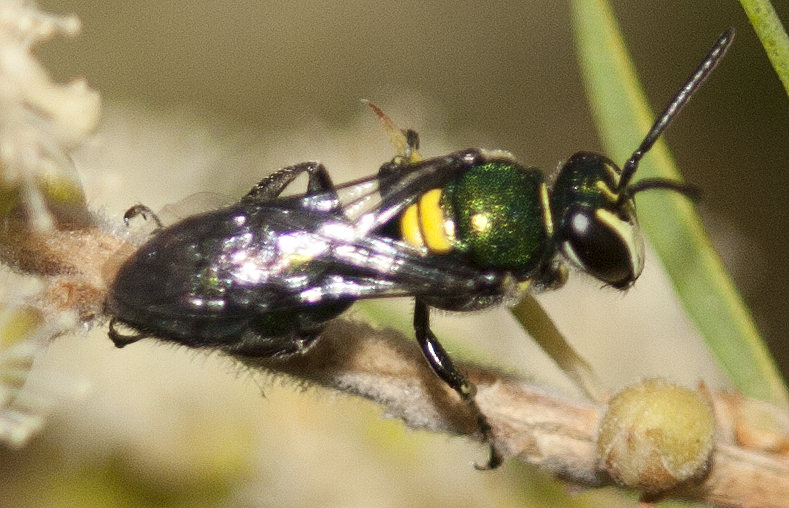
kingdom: Animalia
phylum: Arthropoda
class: Insecta
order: Hymenoptera
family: Colletidae
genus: Palaeorhiza
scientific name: Palaeorhiza parallela
